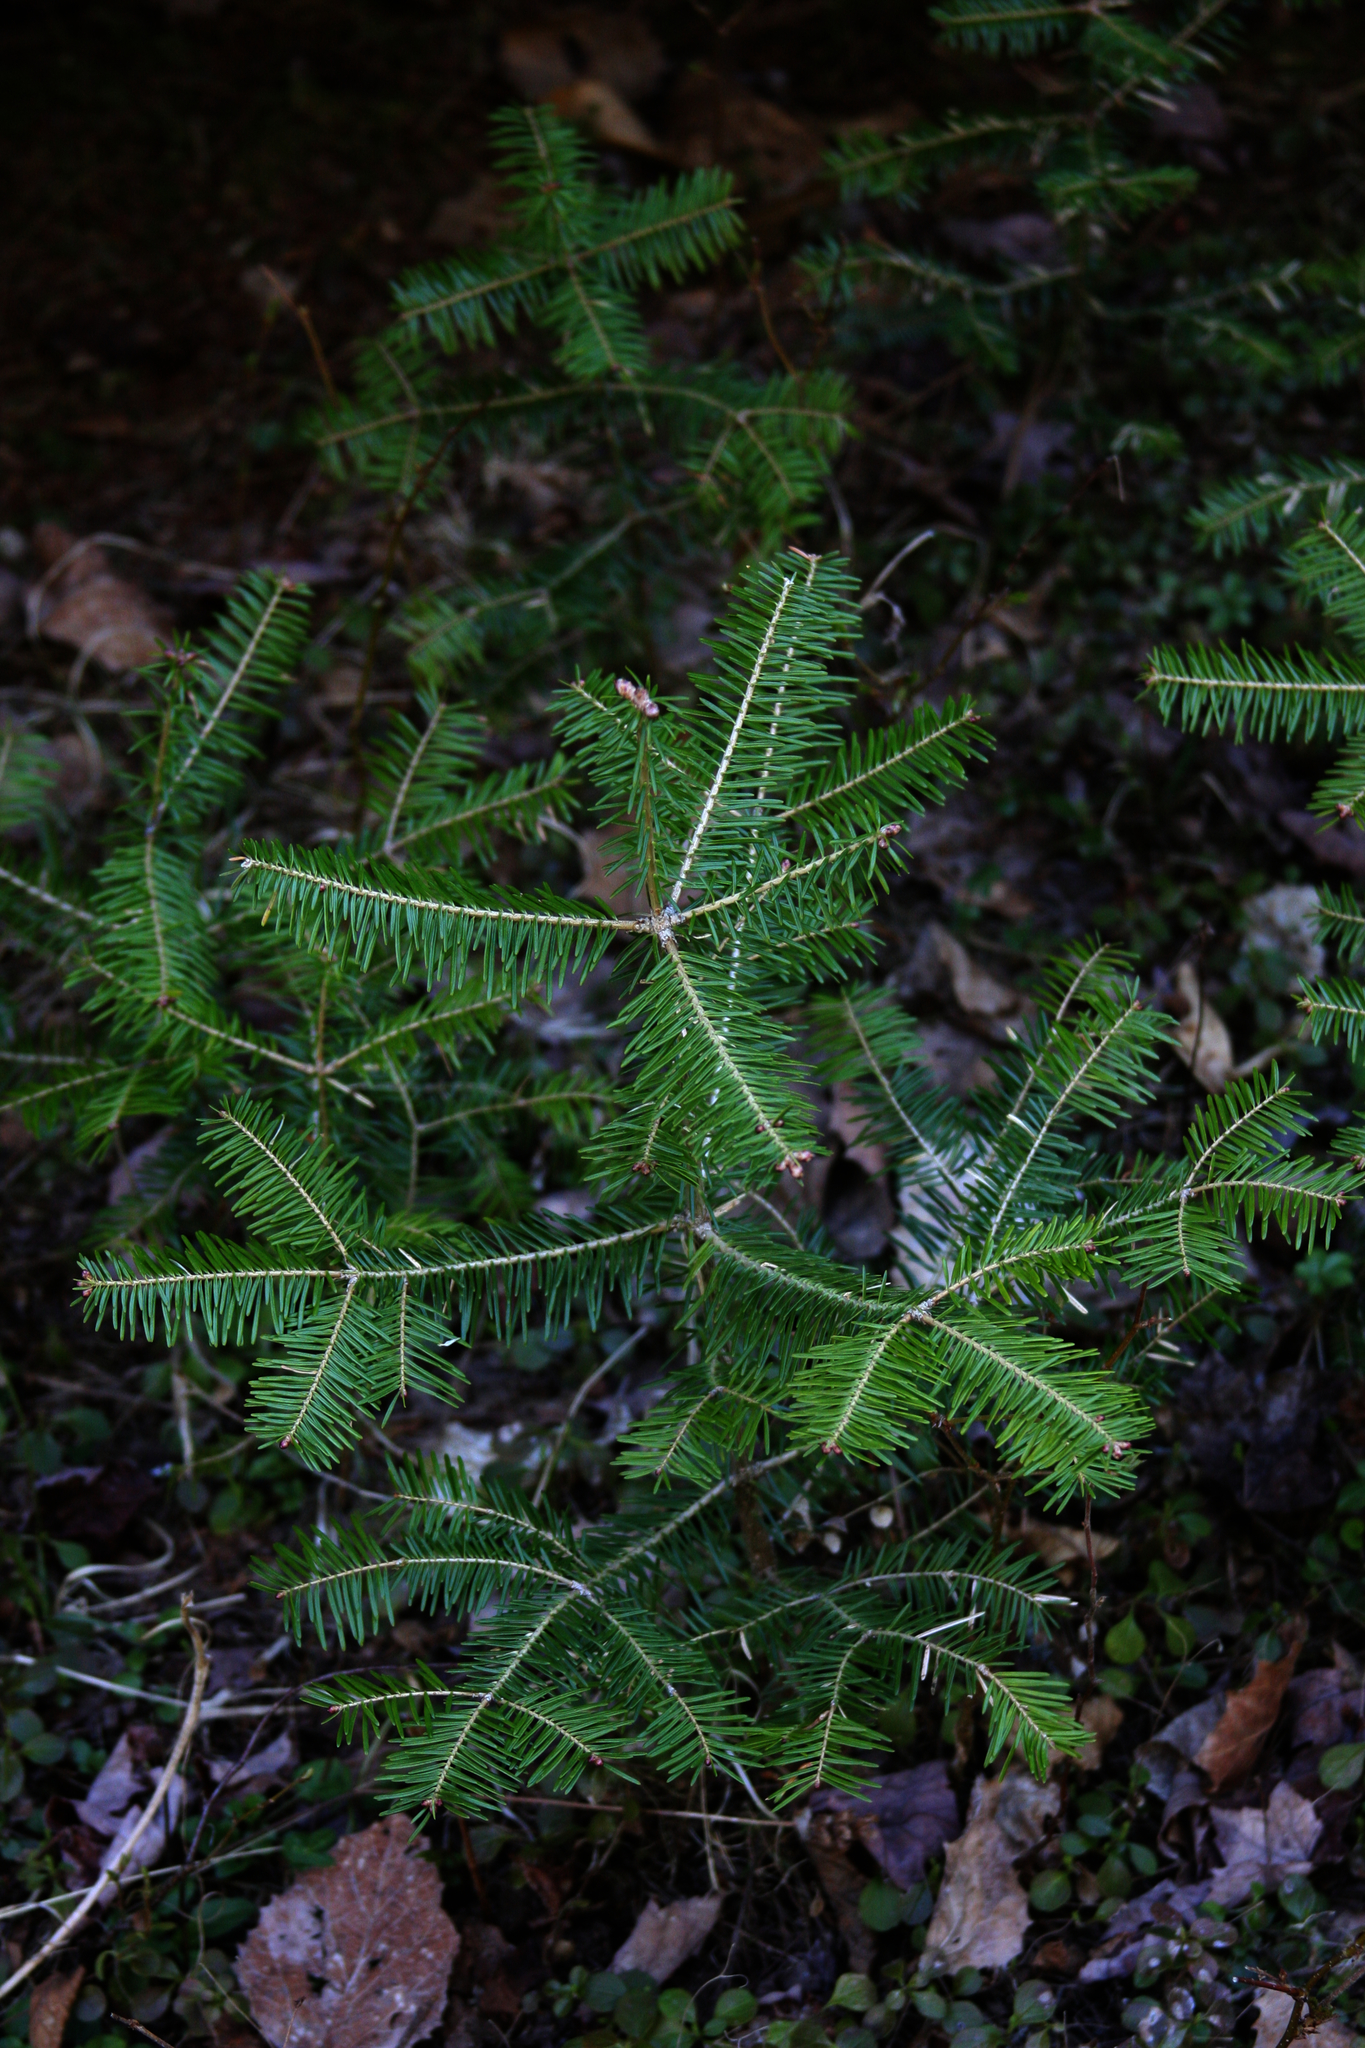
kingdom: Plantae
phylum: Tracheophyta
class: Pinopsida
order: Pinales
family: Pinaceae
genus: Abies
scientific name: Abies balsamea
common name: Balsam fir
